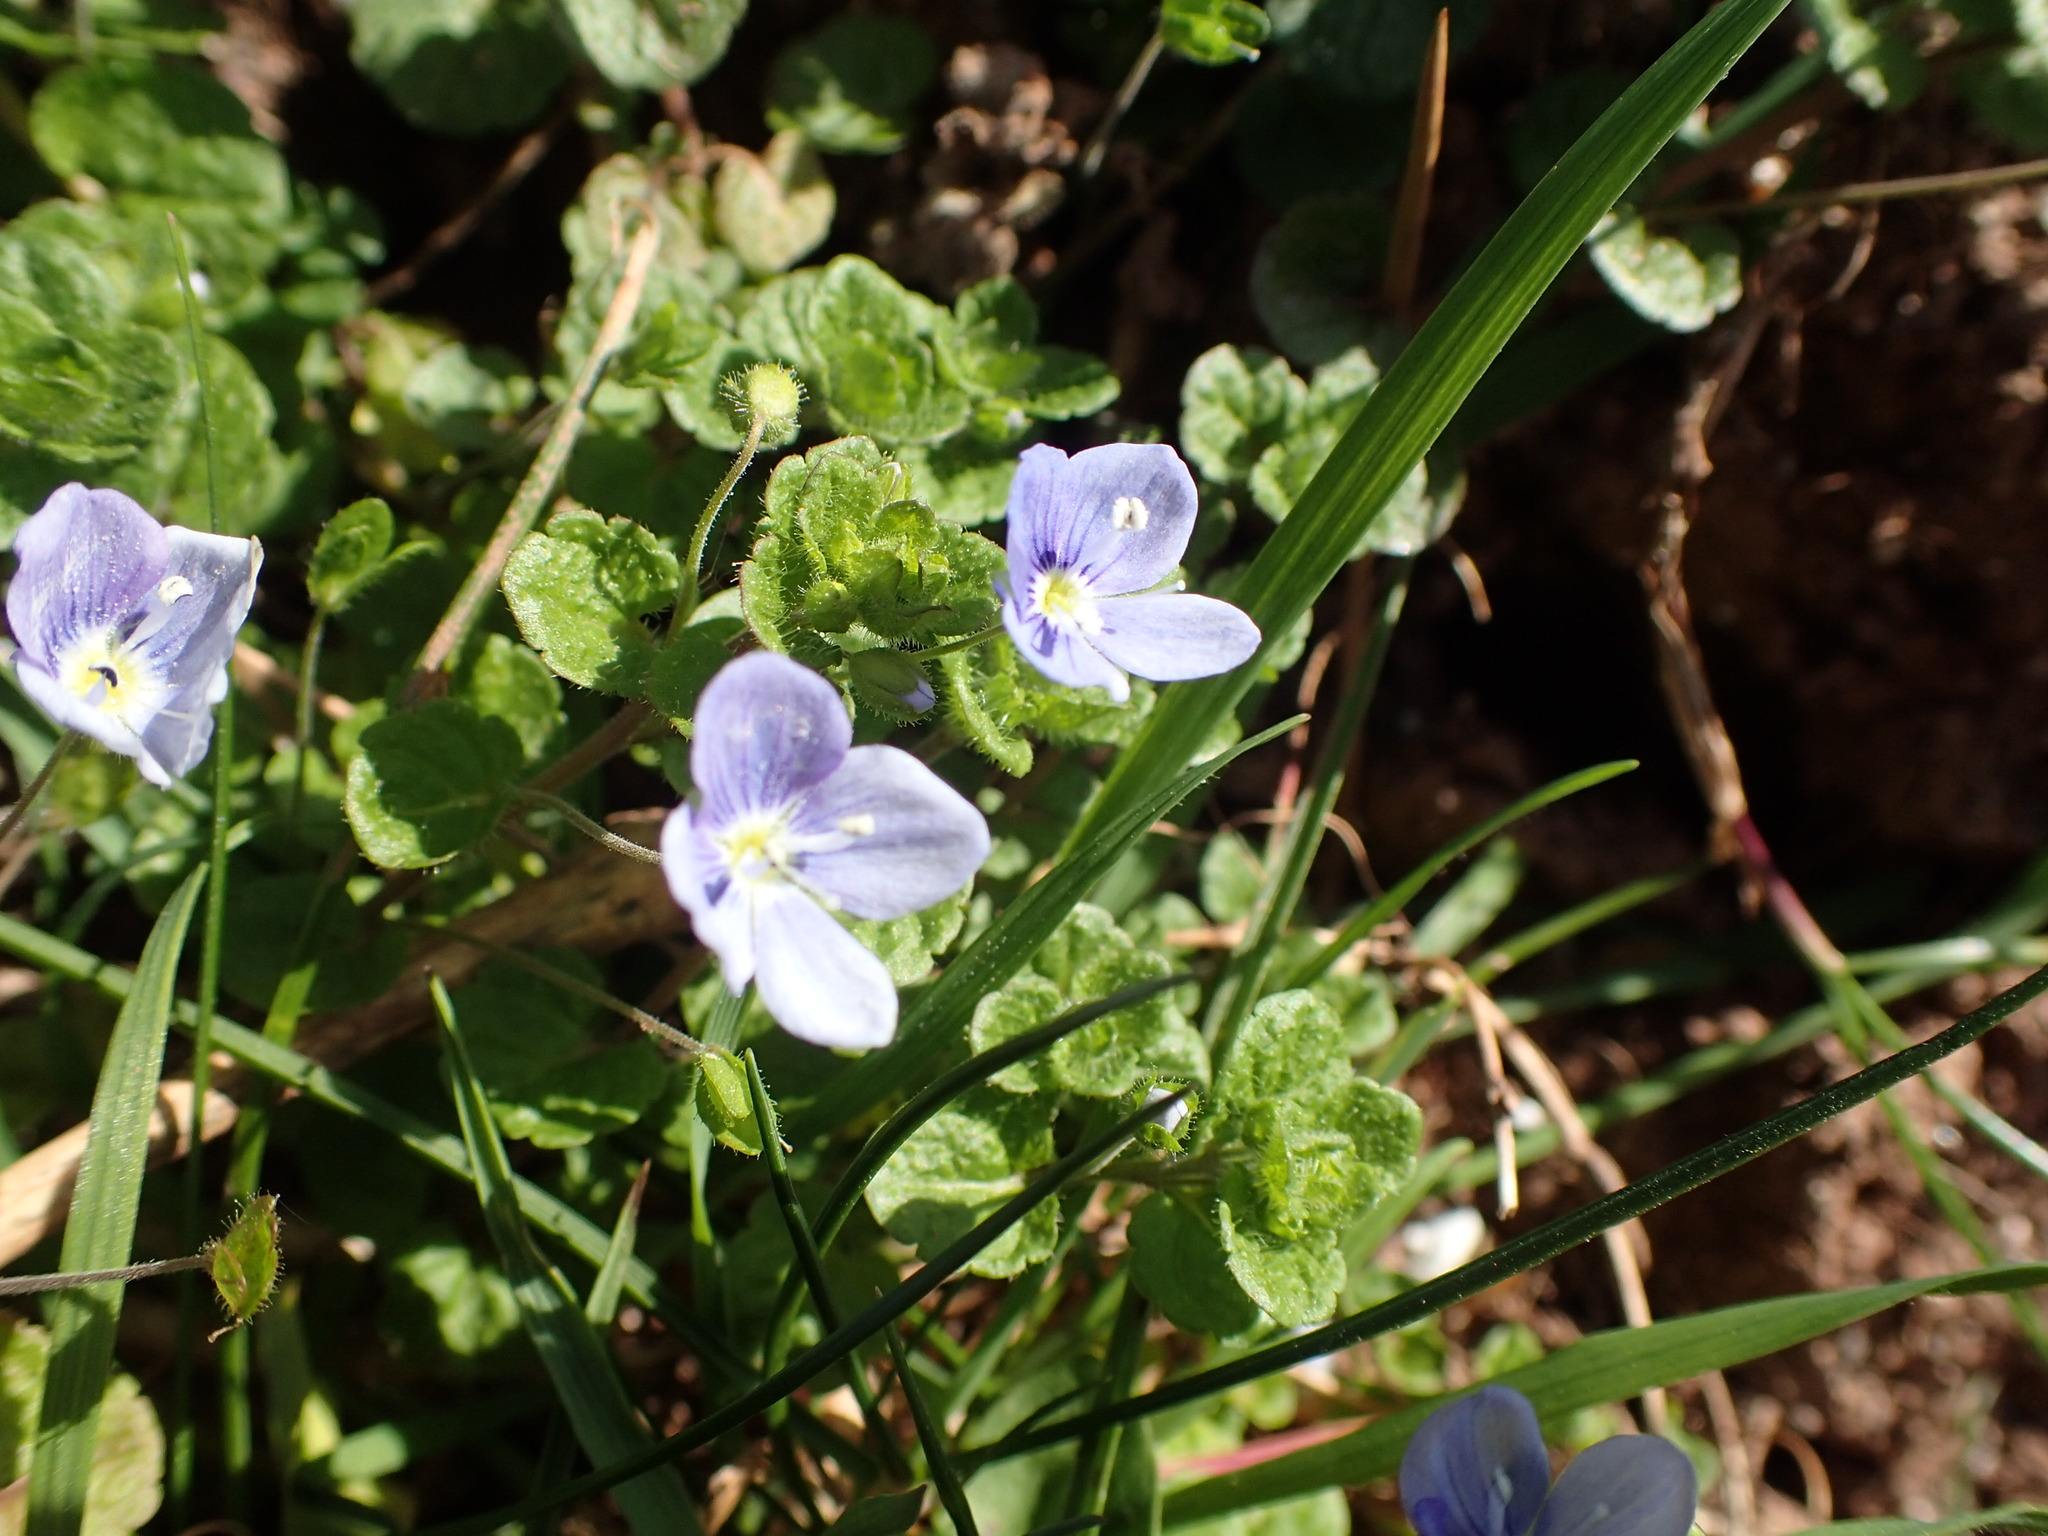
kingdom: Plantae
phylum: Tracheophyta
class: Magnoliopsida
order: Lamiales
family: Plantaginaceae
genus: Veronica
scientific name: Veronica filiformis
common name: Slender speedwell
